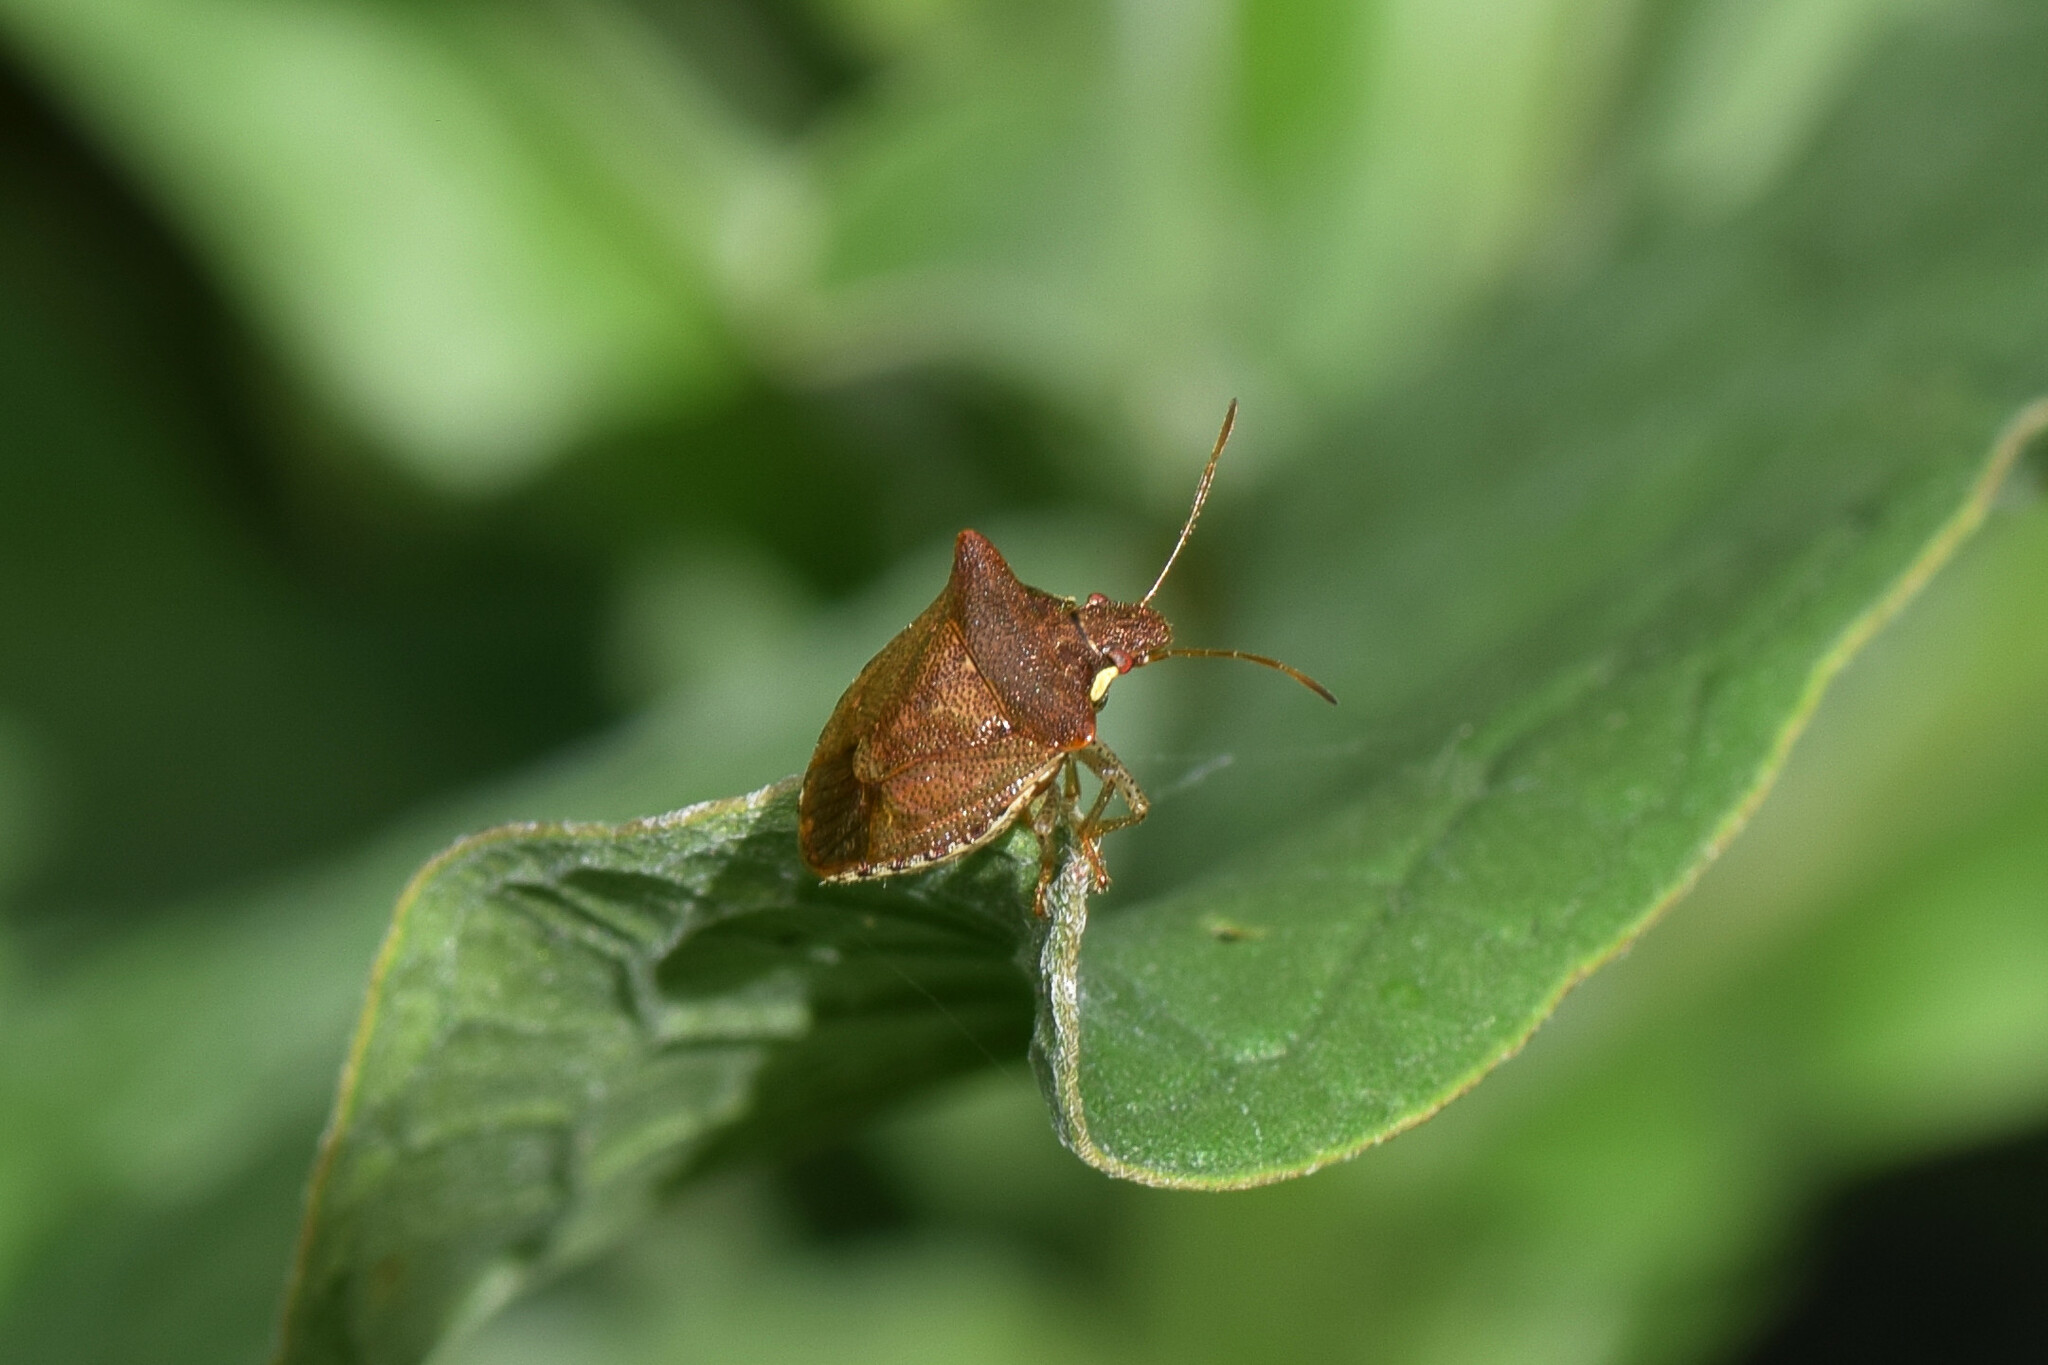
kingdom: Animalia
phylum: Arthropoda
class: Insecta
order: Hemiptera
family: Pentatomidae
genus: Carbula
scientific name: Carbula crassiventris
